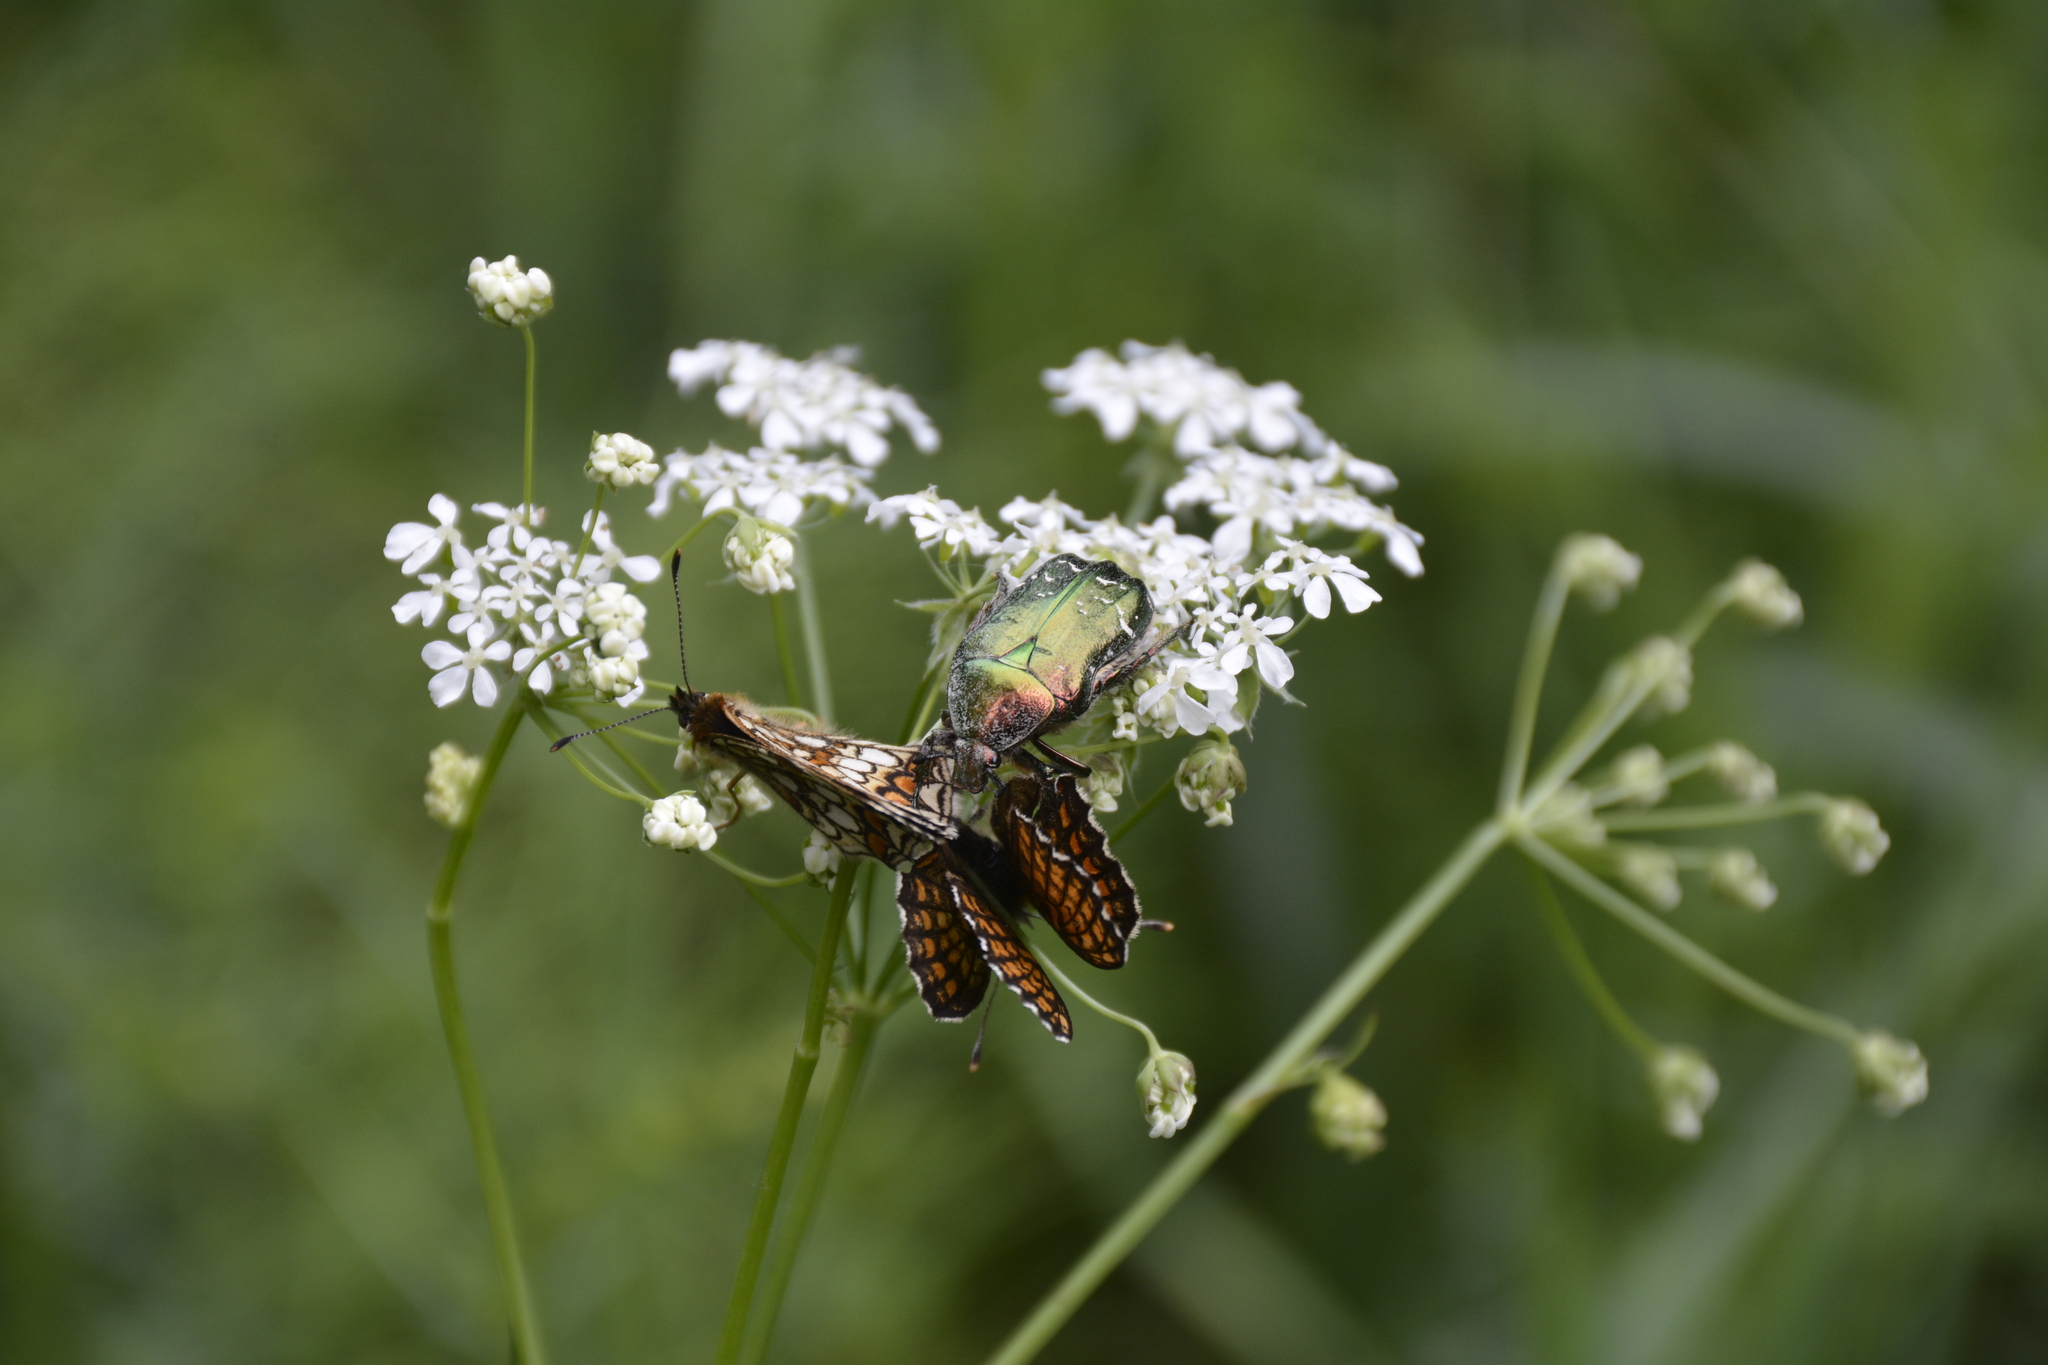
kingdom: Animalia
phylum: Arthropoda
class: Insecta
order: Coleoptera
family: Scarabaeidae
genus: Cetonia
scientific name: Cetonia aurata
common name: Rose chafer
